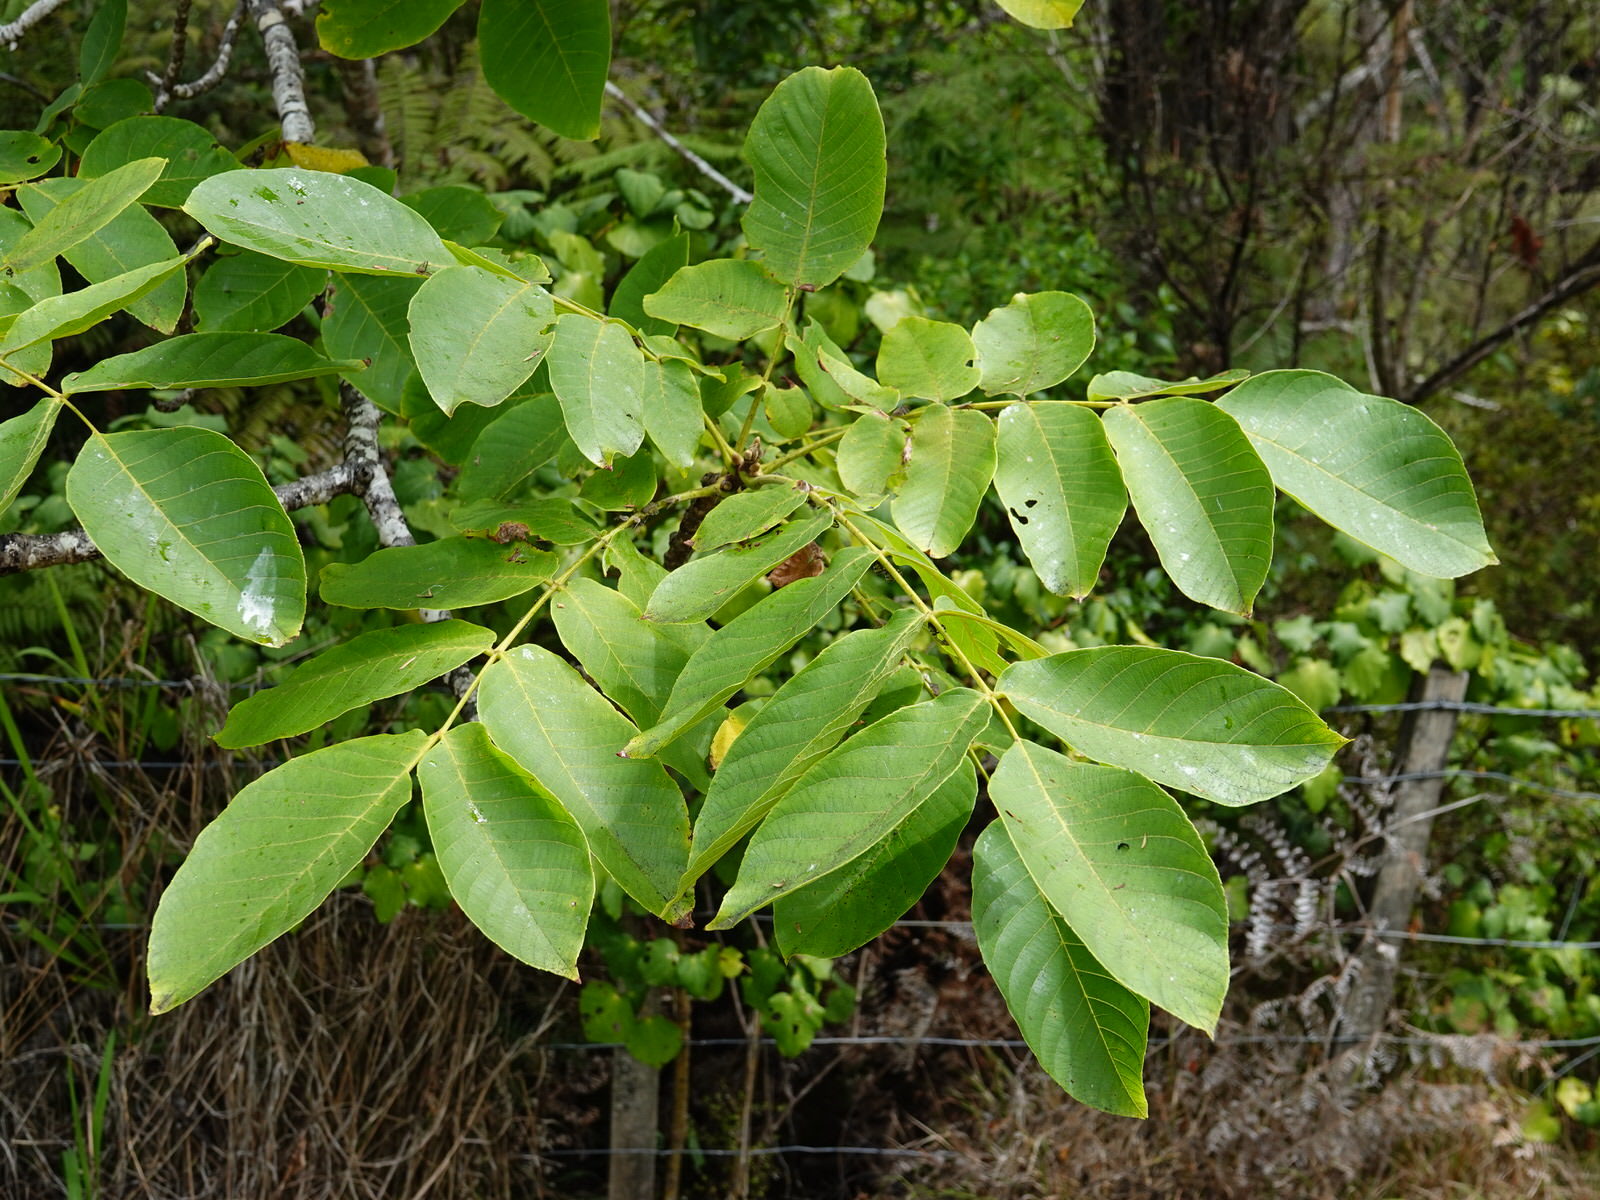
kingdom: Plantae
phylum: Tracheophyta
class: Magnoliopsida
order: Fagales
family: Juglandaceae
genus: Juglans
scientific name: Juglans regia
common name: Walnut
